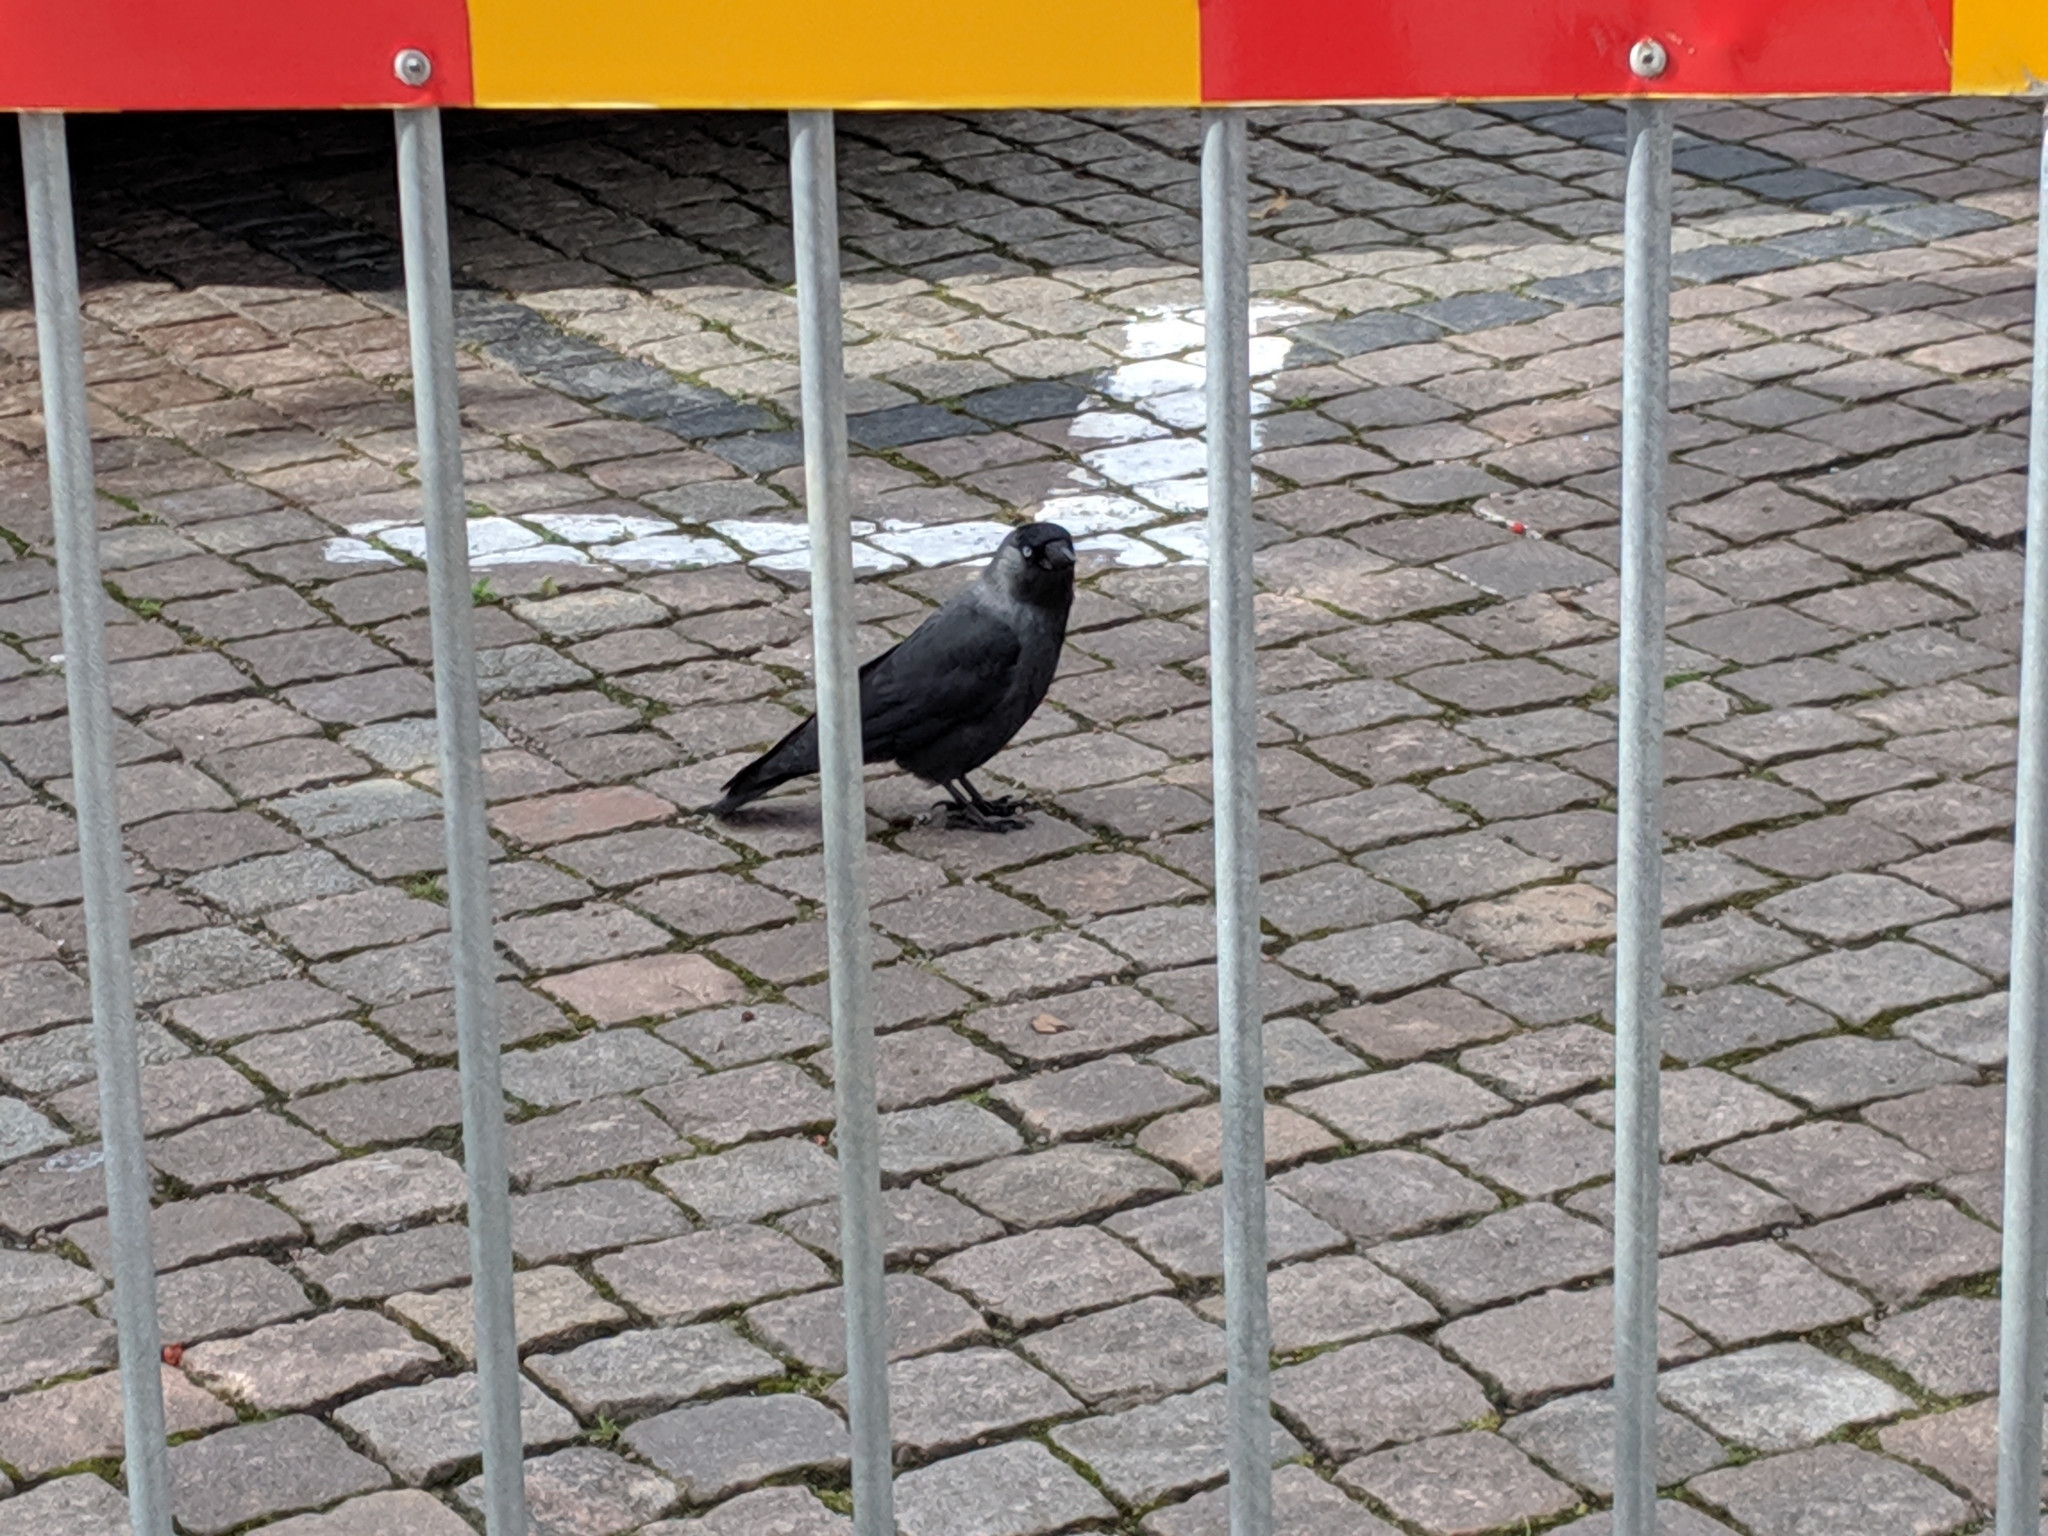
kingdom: Animalia
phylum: Chordata
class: Aves
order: Passeriformes
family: Corvidae
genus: Coloeus
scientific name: Coloeus monedula
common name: Western jackdaw
